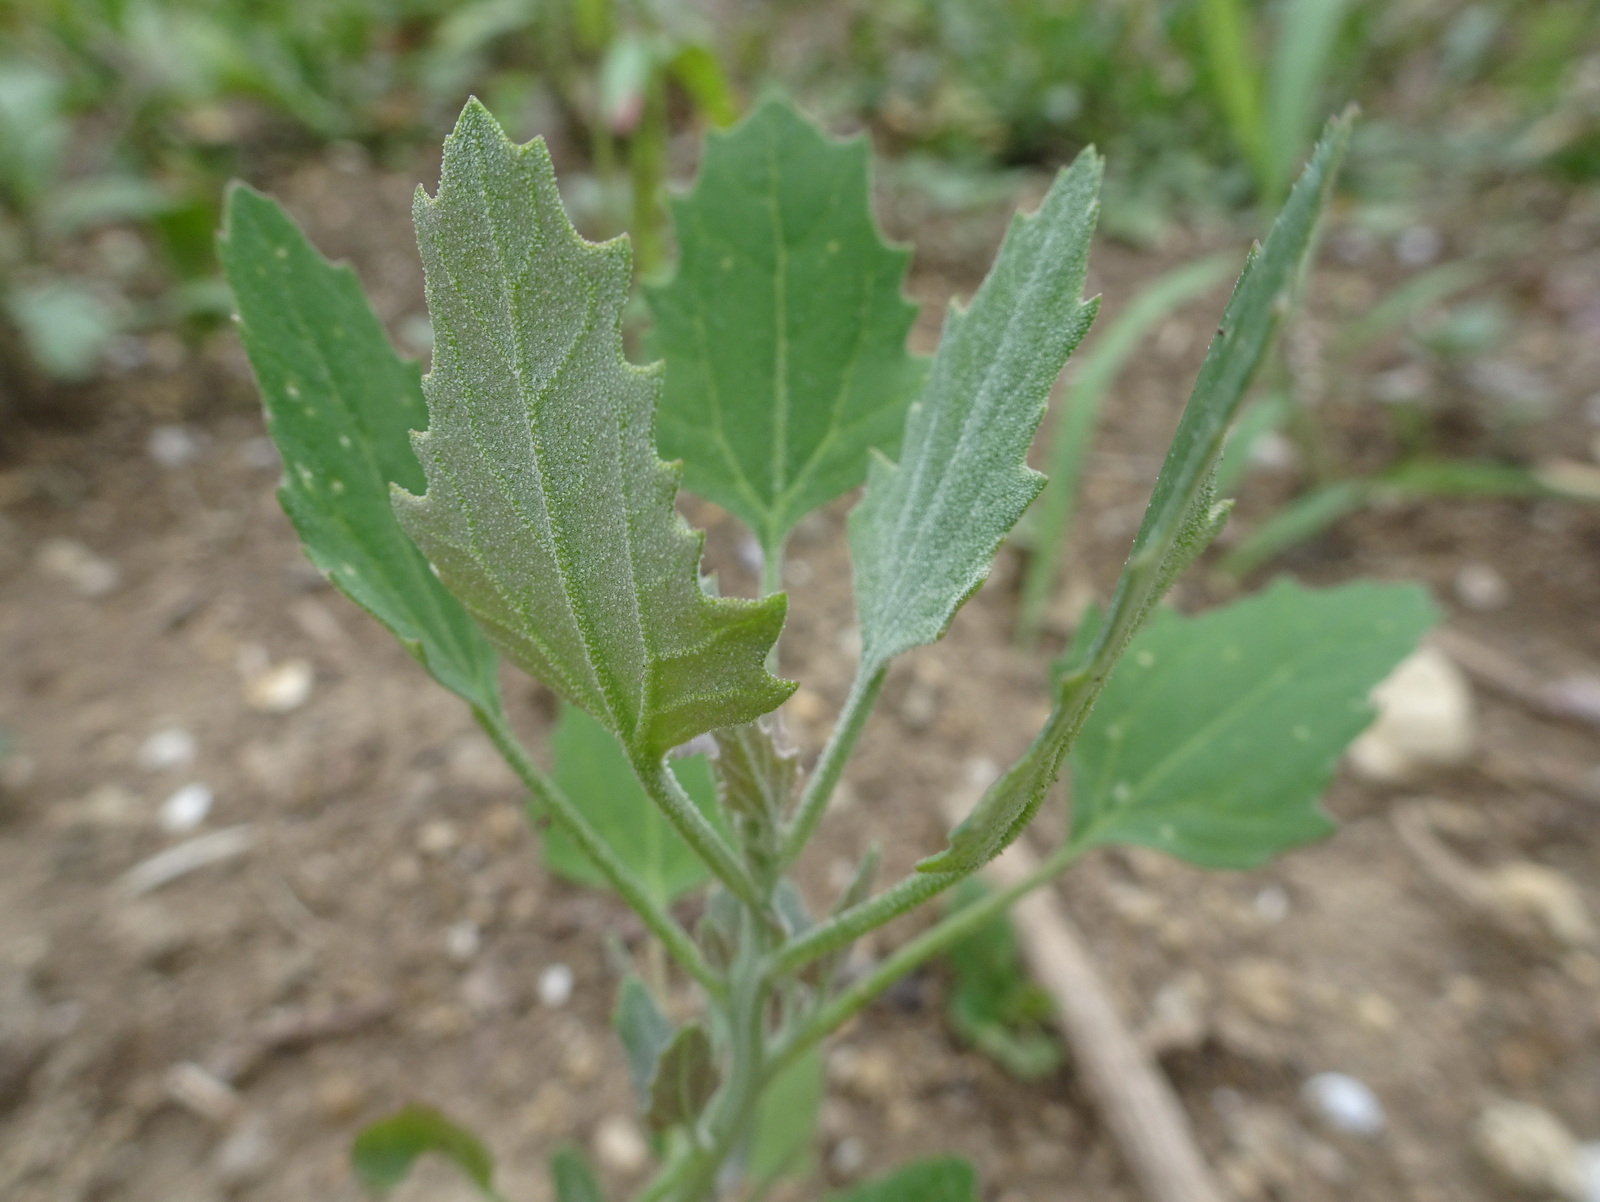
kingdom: Plantae
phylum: Tracheophyta
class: Magnoliopsida
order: Caryophyllales
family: Amaranthaceae
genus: Chenopodium
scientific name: Chenopodium album
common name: Fat-hen
